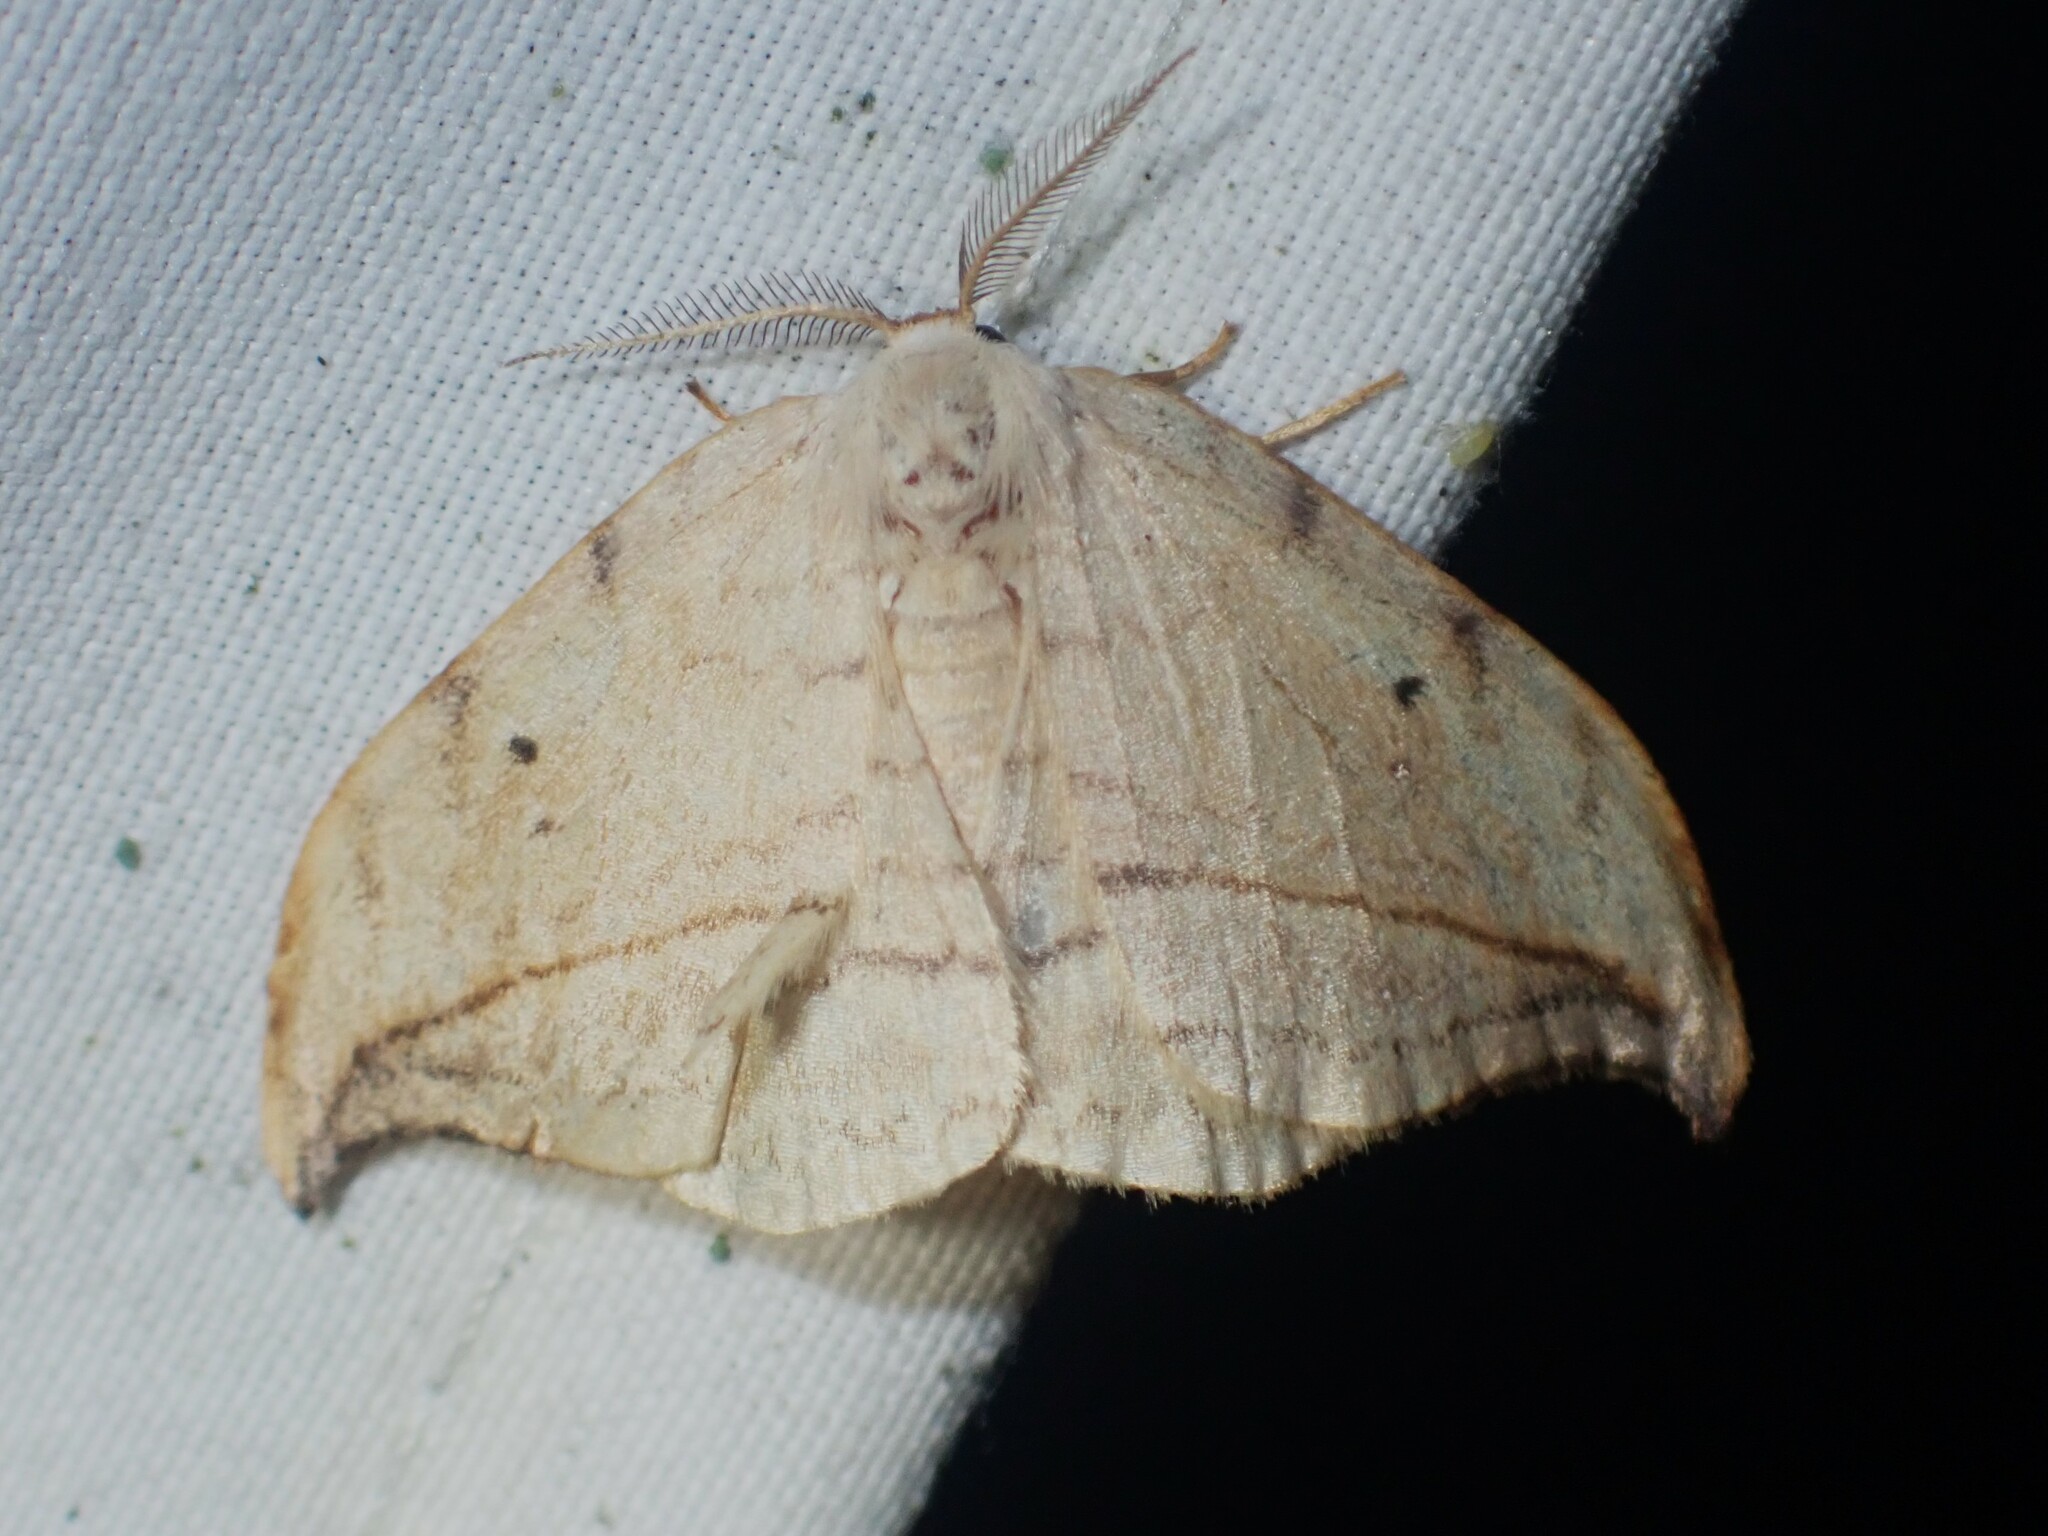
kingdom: Animalia
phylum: Arthropoda
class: Insecta
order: Lepidoptera
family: Drepanidae
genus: Drepana
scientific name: Drepana arcuata
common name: Arched hooktip moth
